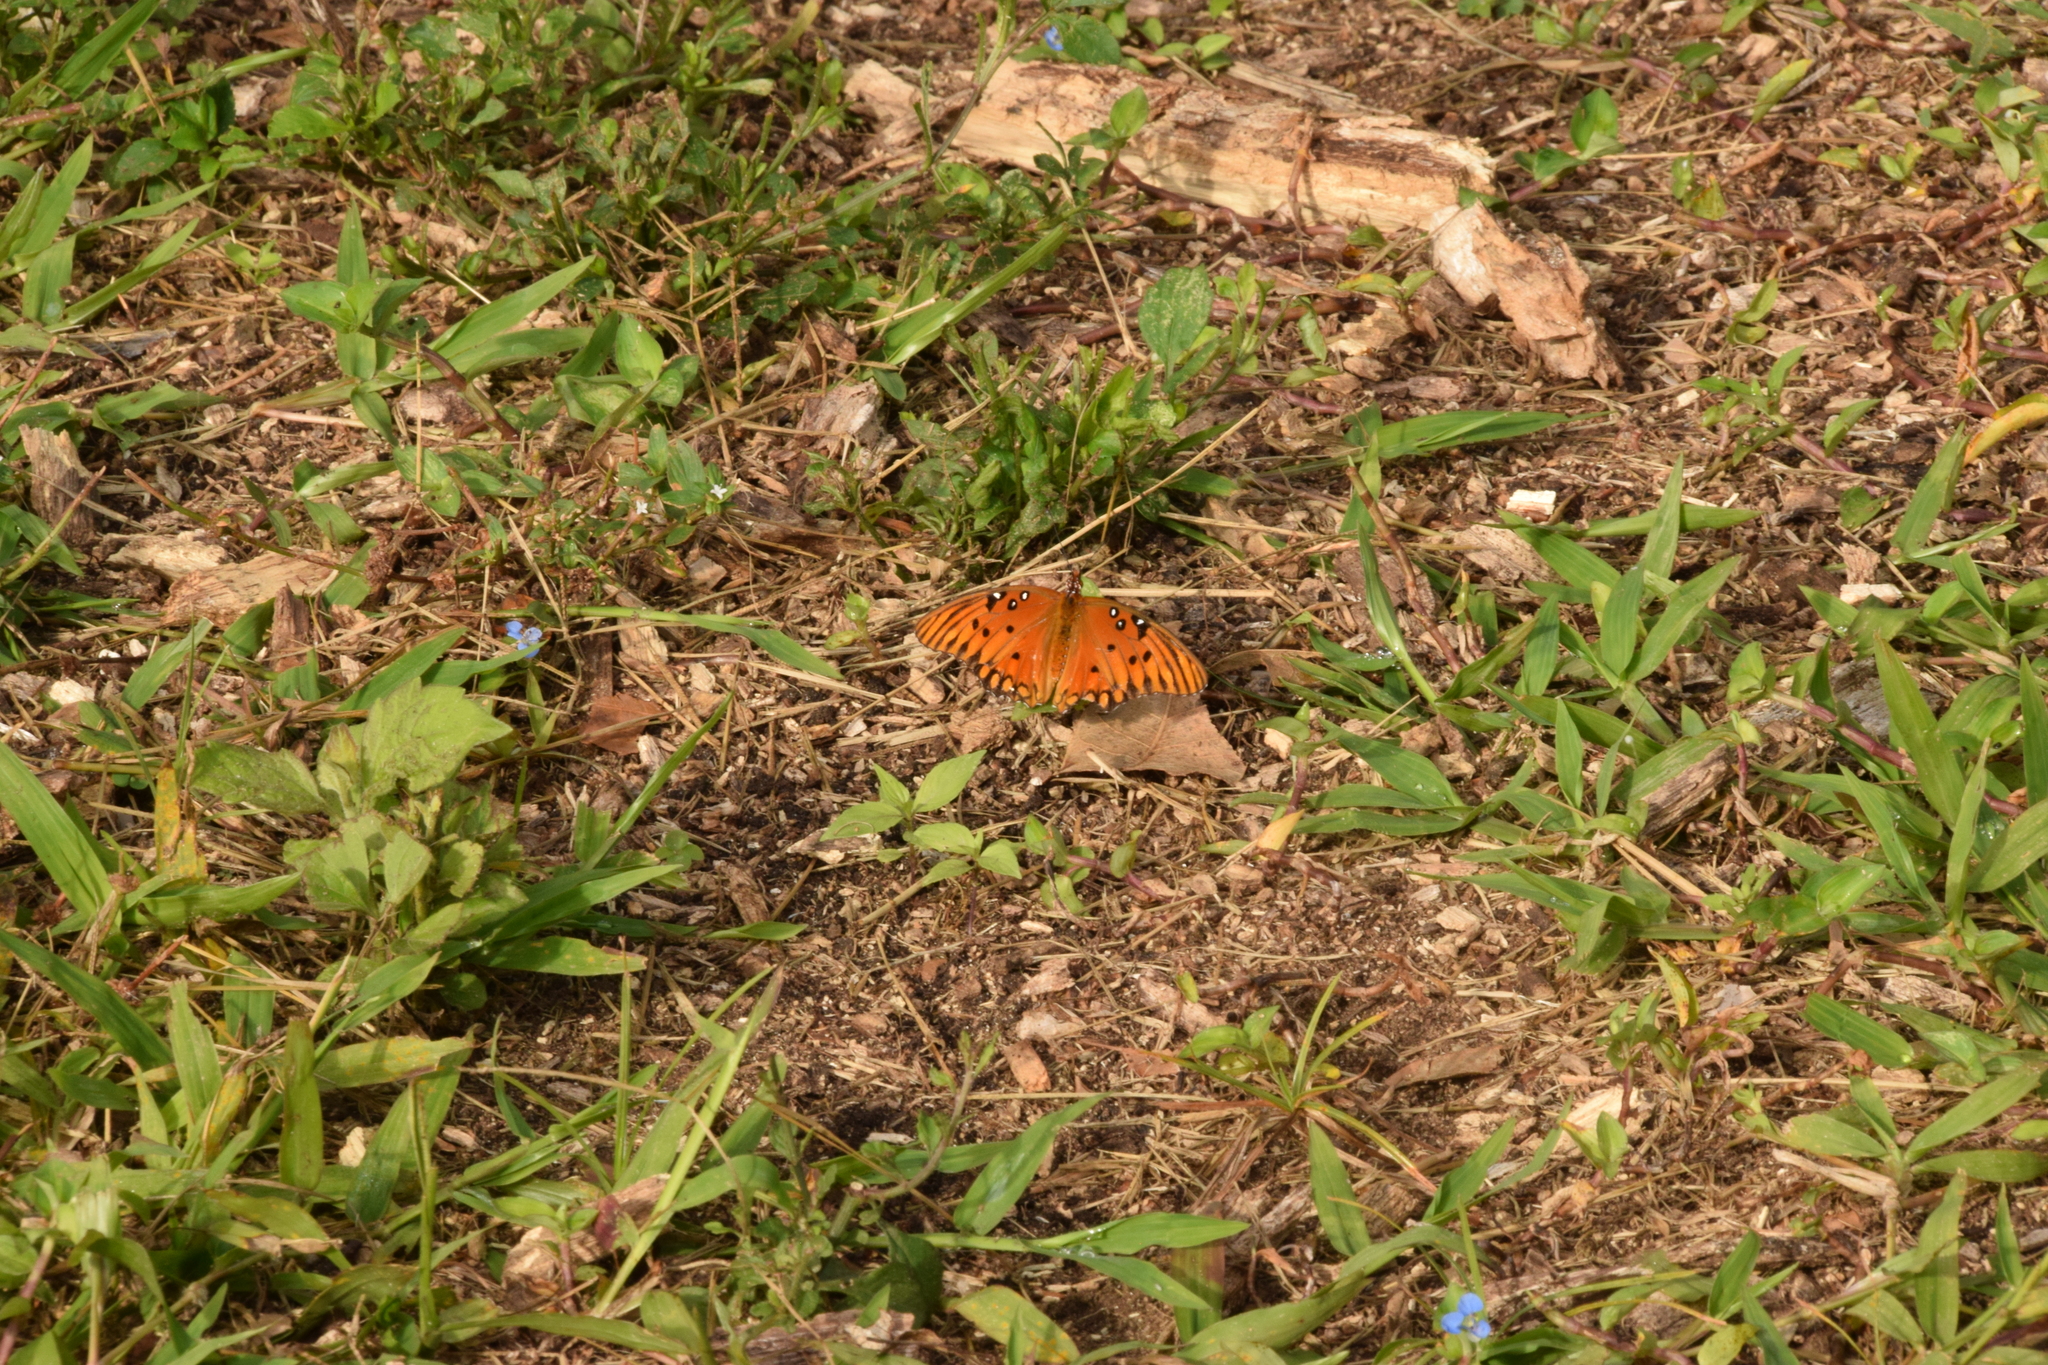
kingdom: Animalia
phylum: Arthropoda
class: Insecta
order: Lepidoptera
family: Nymphalidae
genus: Dione
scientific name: Dione vanillae
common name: Gulf fritillary
